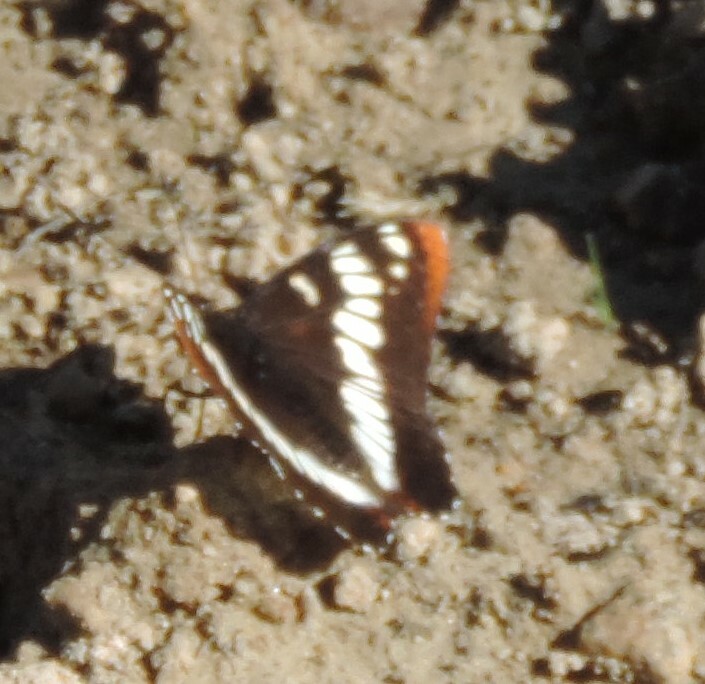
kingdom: Animalia
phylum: Arthropoda
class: Insecta
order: Lepidoptera
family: Nymphalidae
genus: Limenitis
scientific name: Limenitis lorquini
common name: Lorquin's admiral
